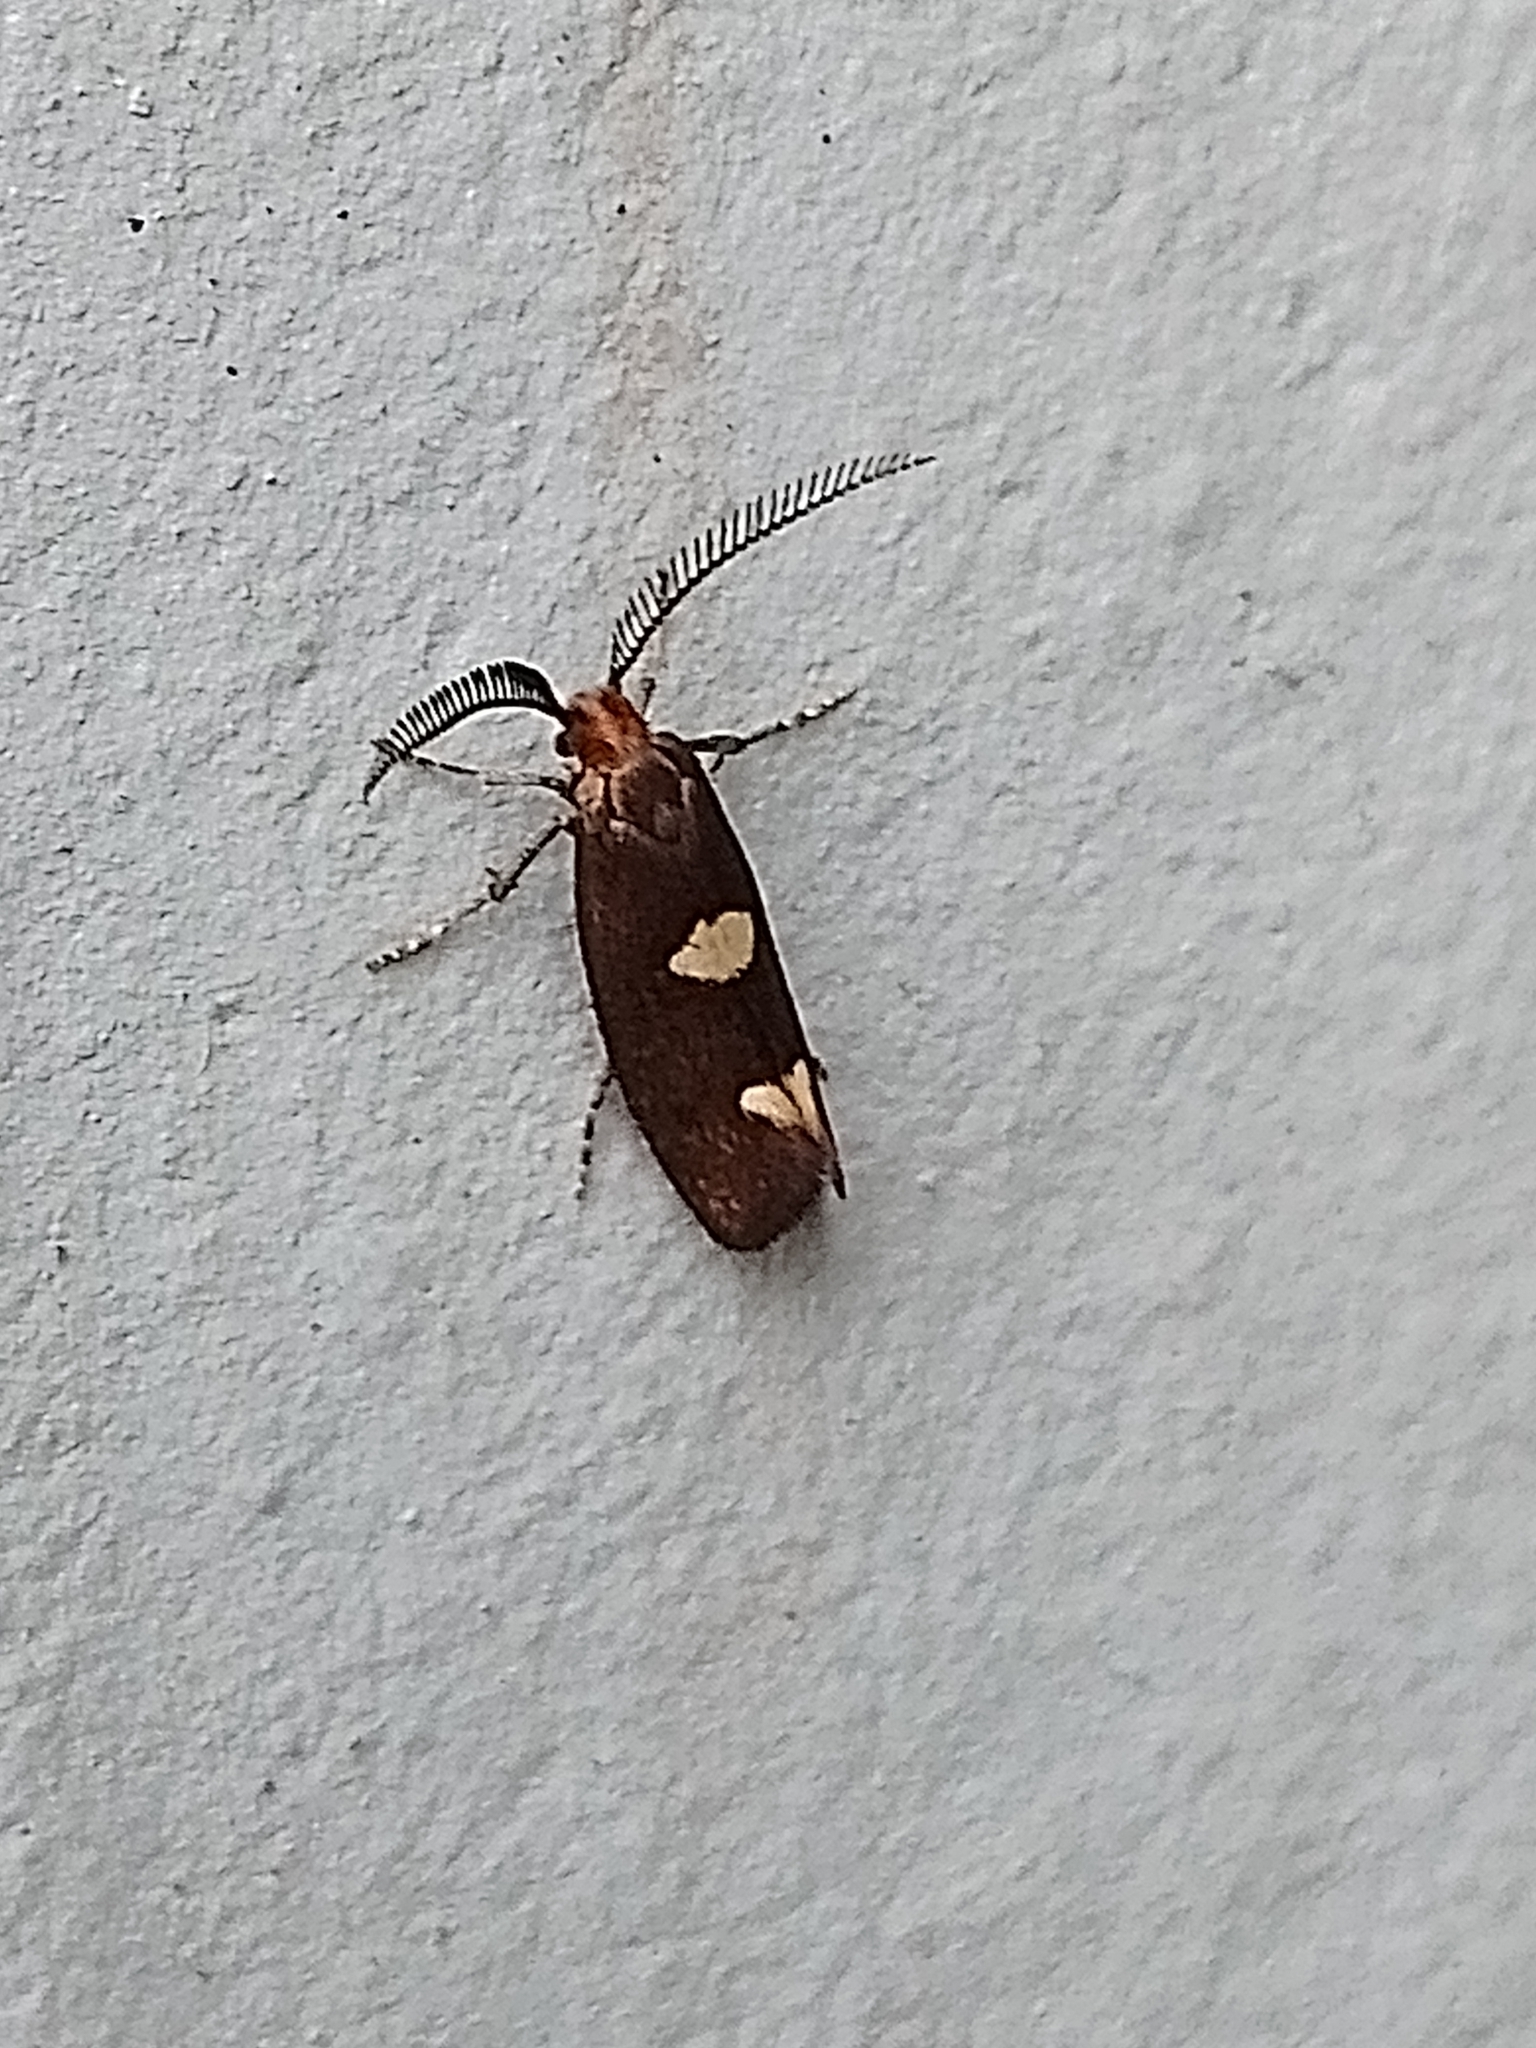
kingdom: Animalia
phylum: Arthropoda
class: Insecta
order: Lepidoptera
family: Incurvariidae
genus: Incurvaria
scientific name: Incurvaria masculella
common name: Feathered leaf-cutter
